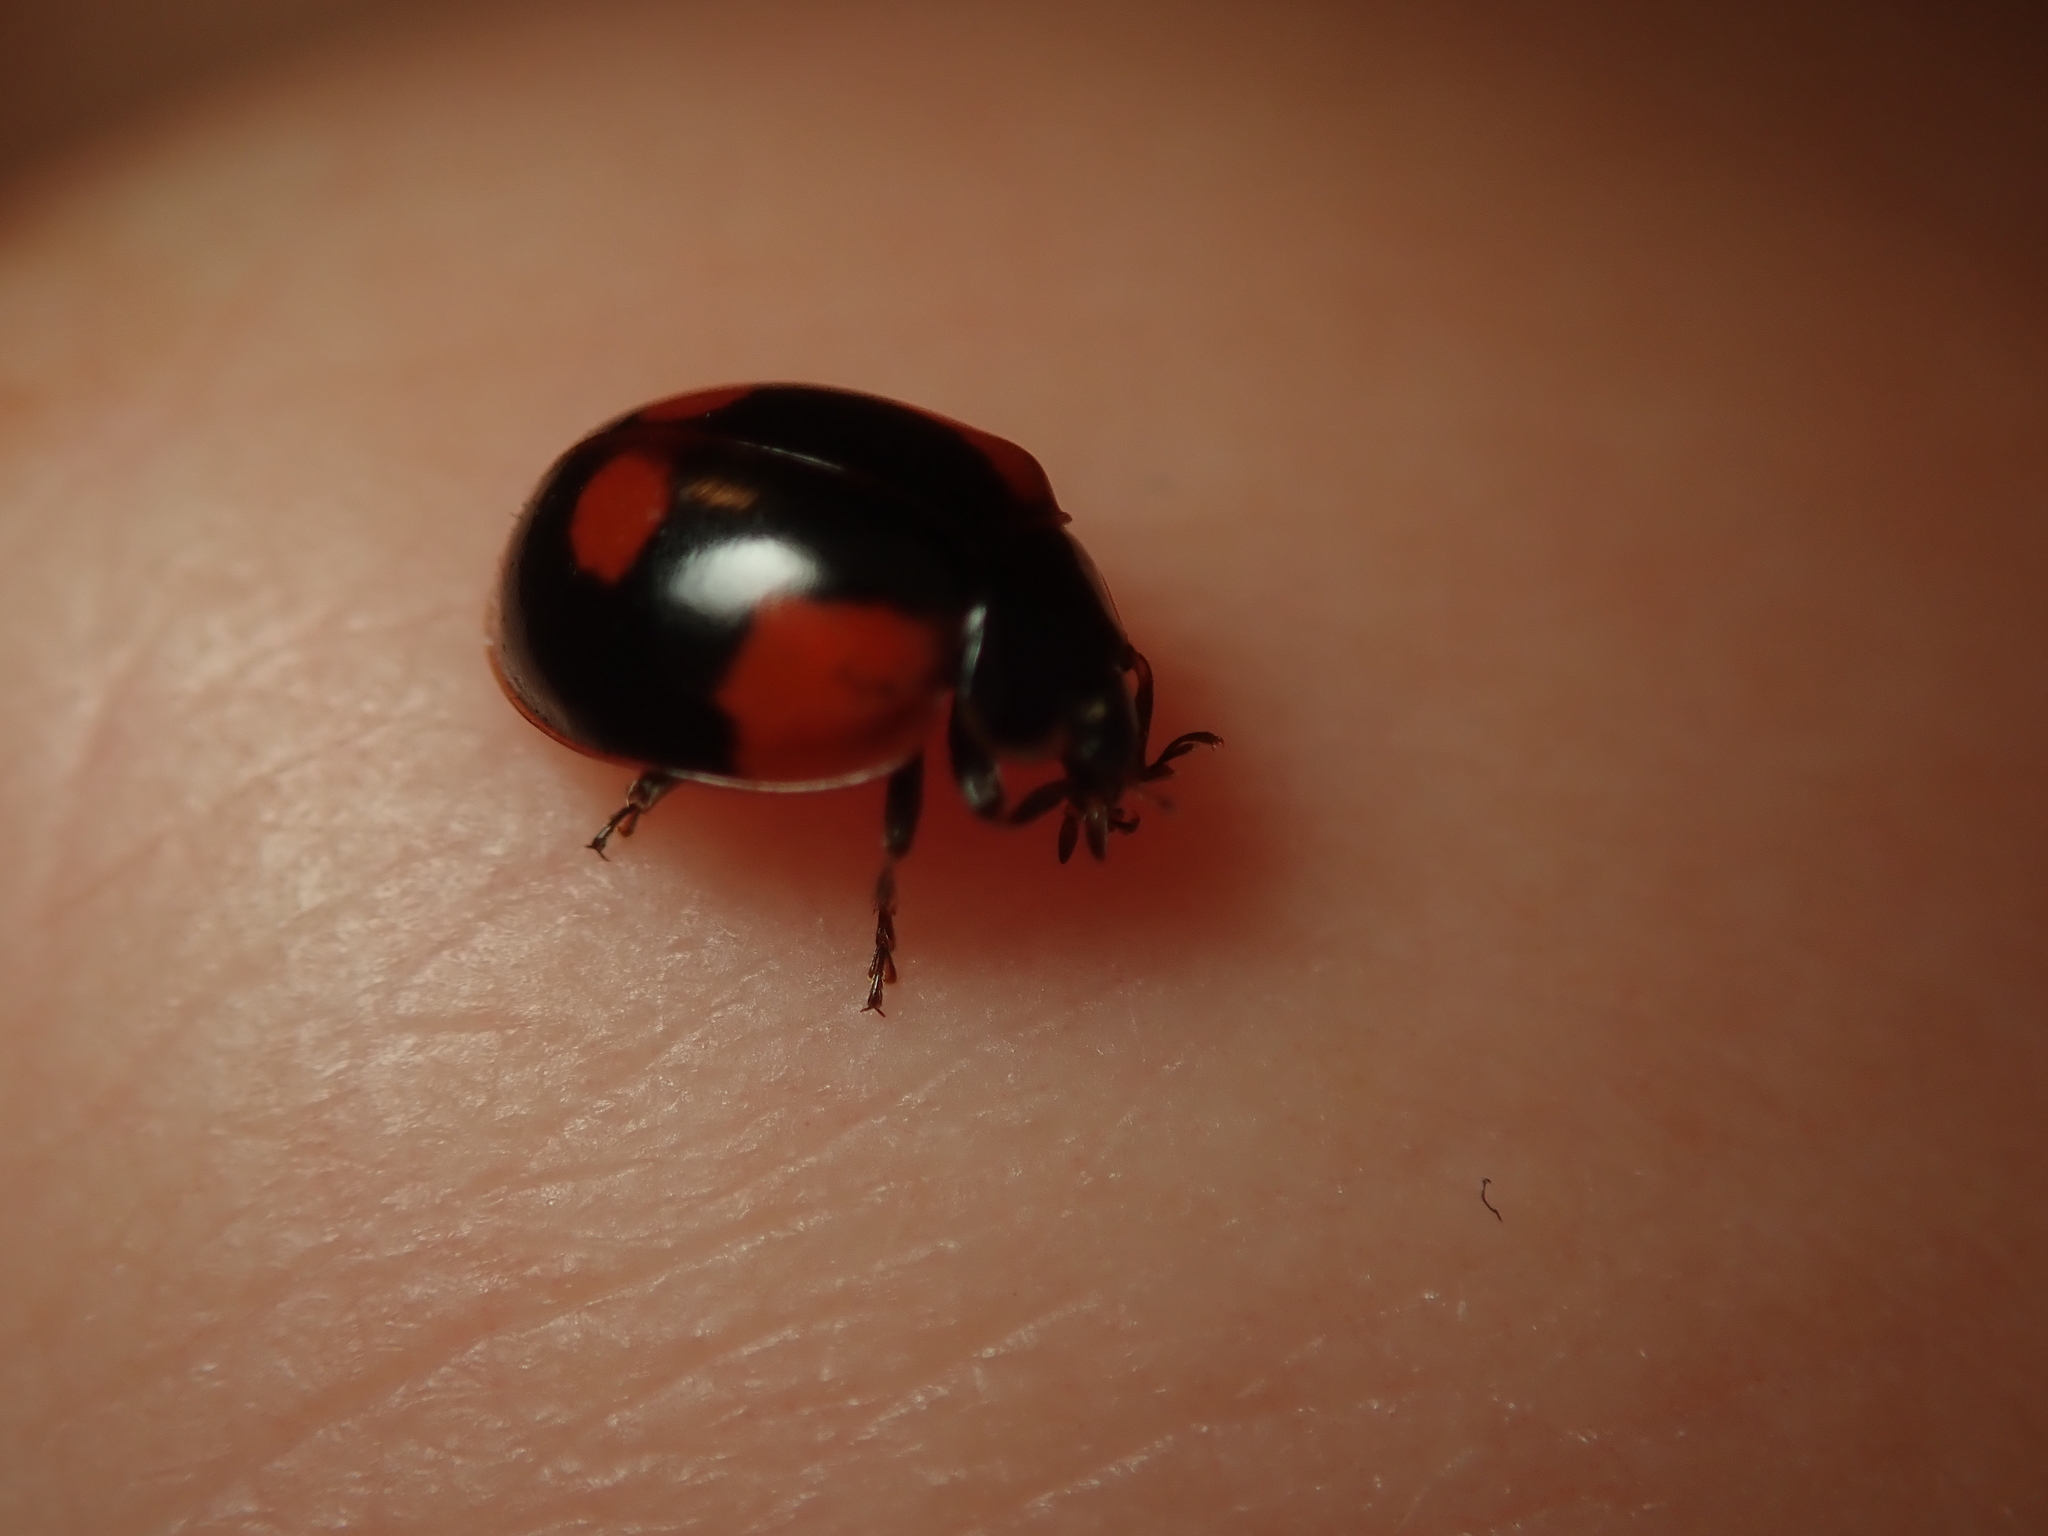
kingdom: Animalia
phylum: Arthropoda
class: Insecta
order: Coleoptera
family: Coccinellidae
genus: Adalia
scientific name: Adalia bipunctata
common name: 2-spot ladybird
